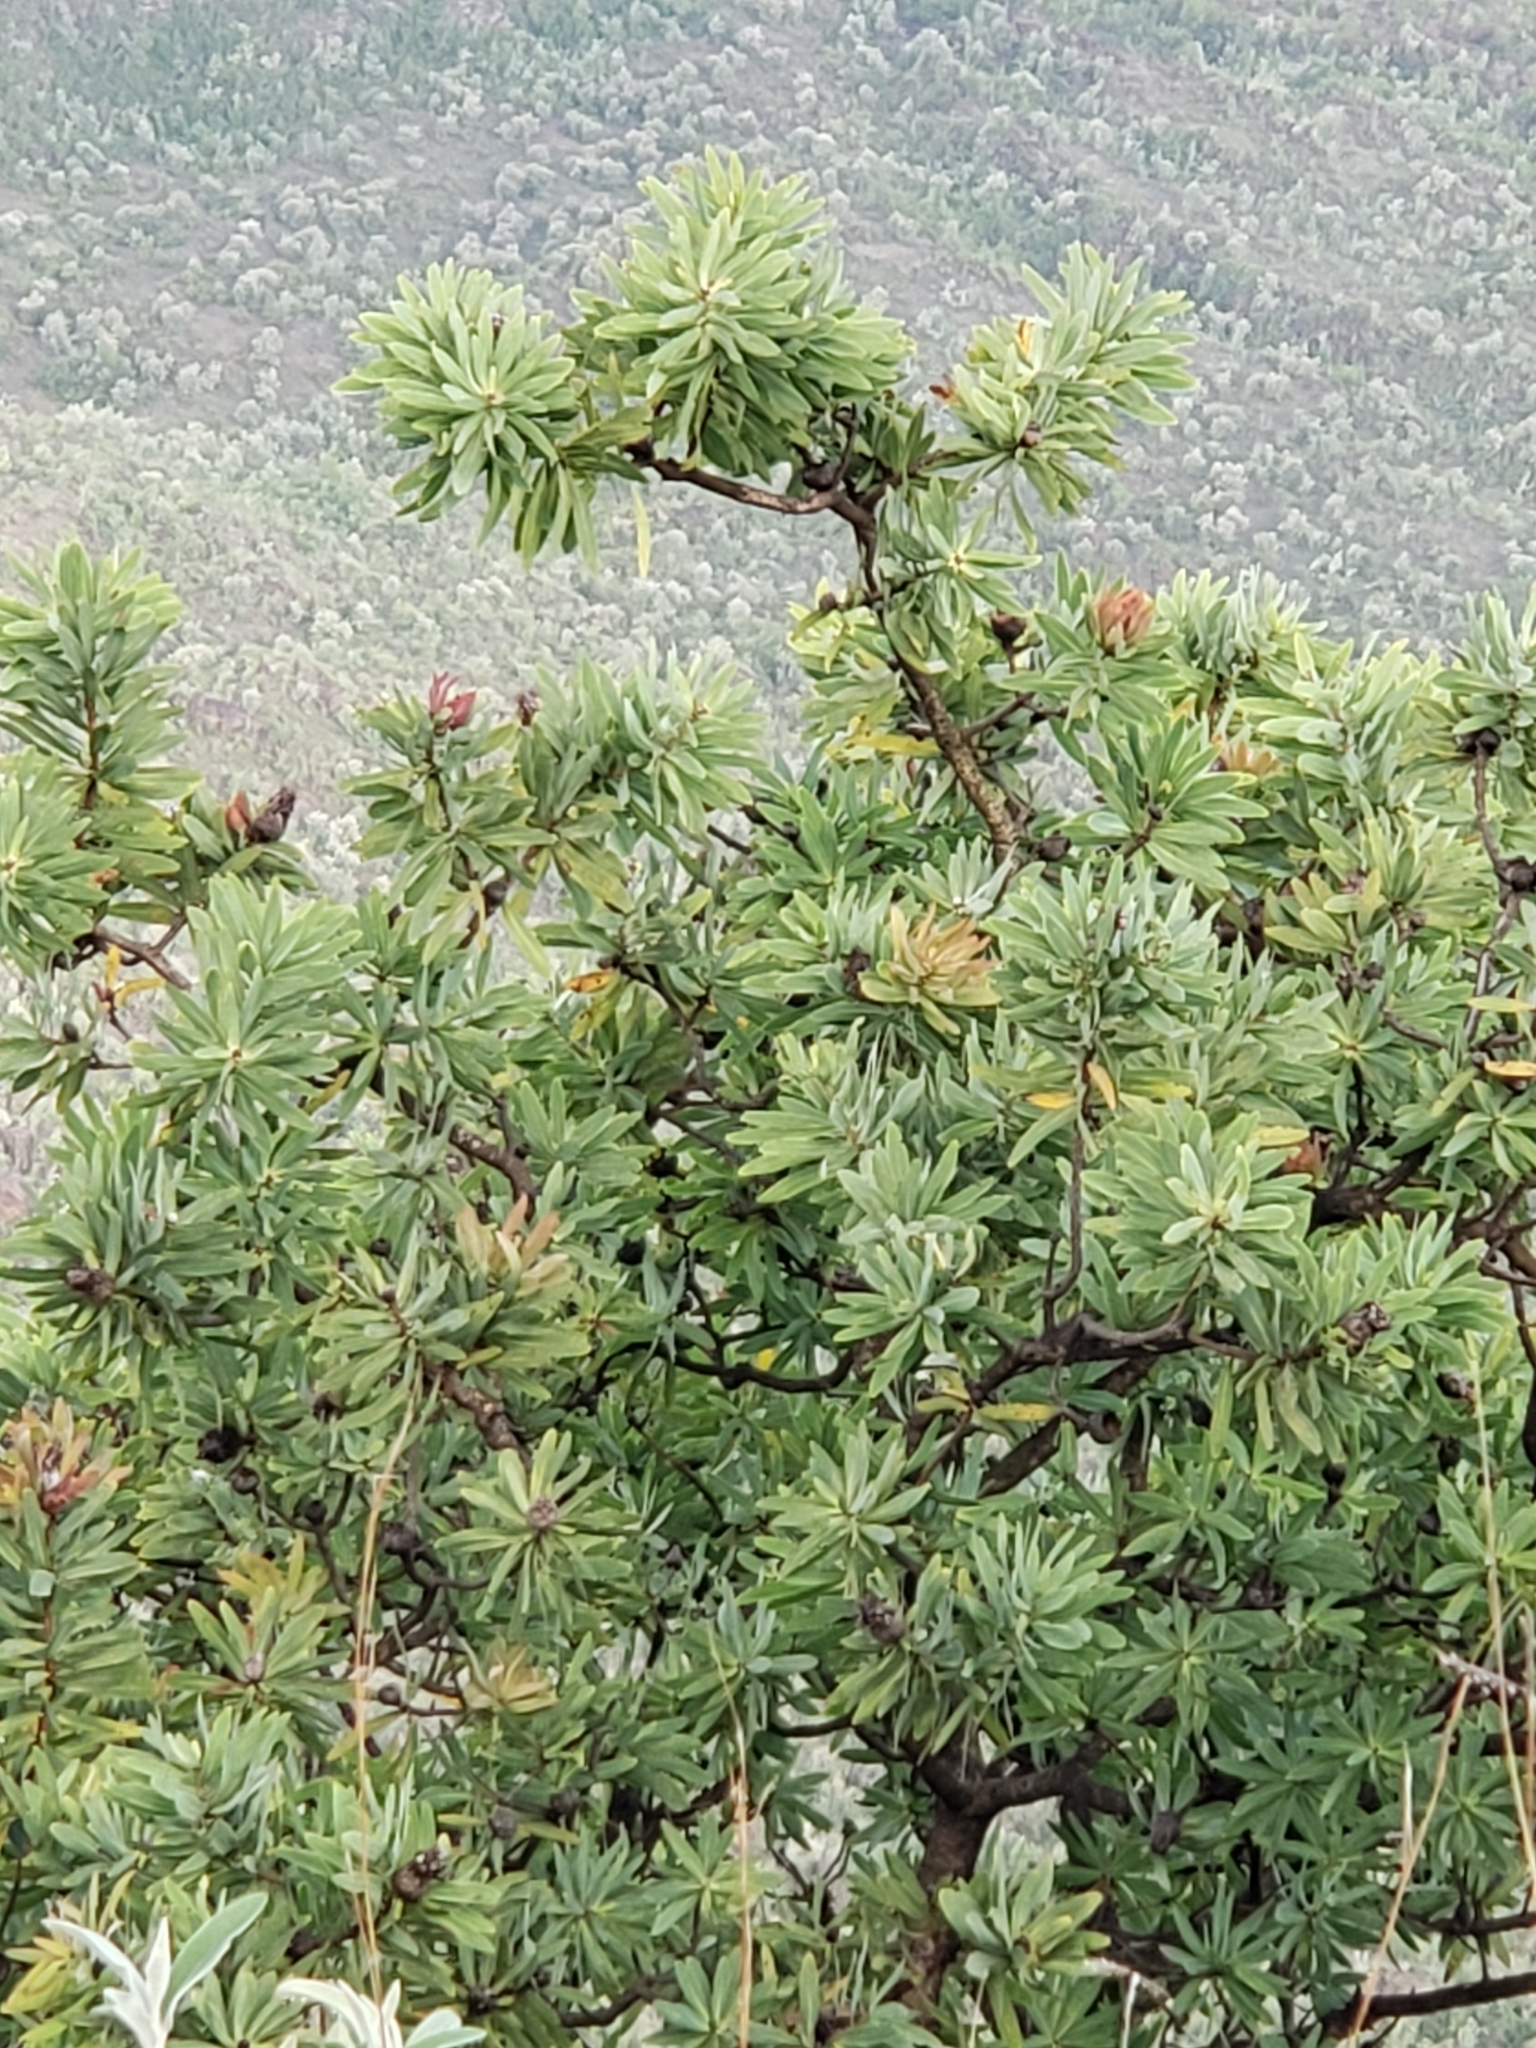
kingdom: Plantae
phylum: Tracheophyta
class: Magnoliopsida
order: Proteales
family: Proteaceae
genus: Protea
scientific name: Protea caffra
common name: Common sugarbush
